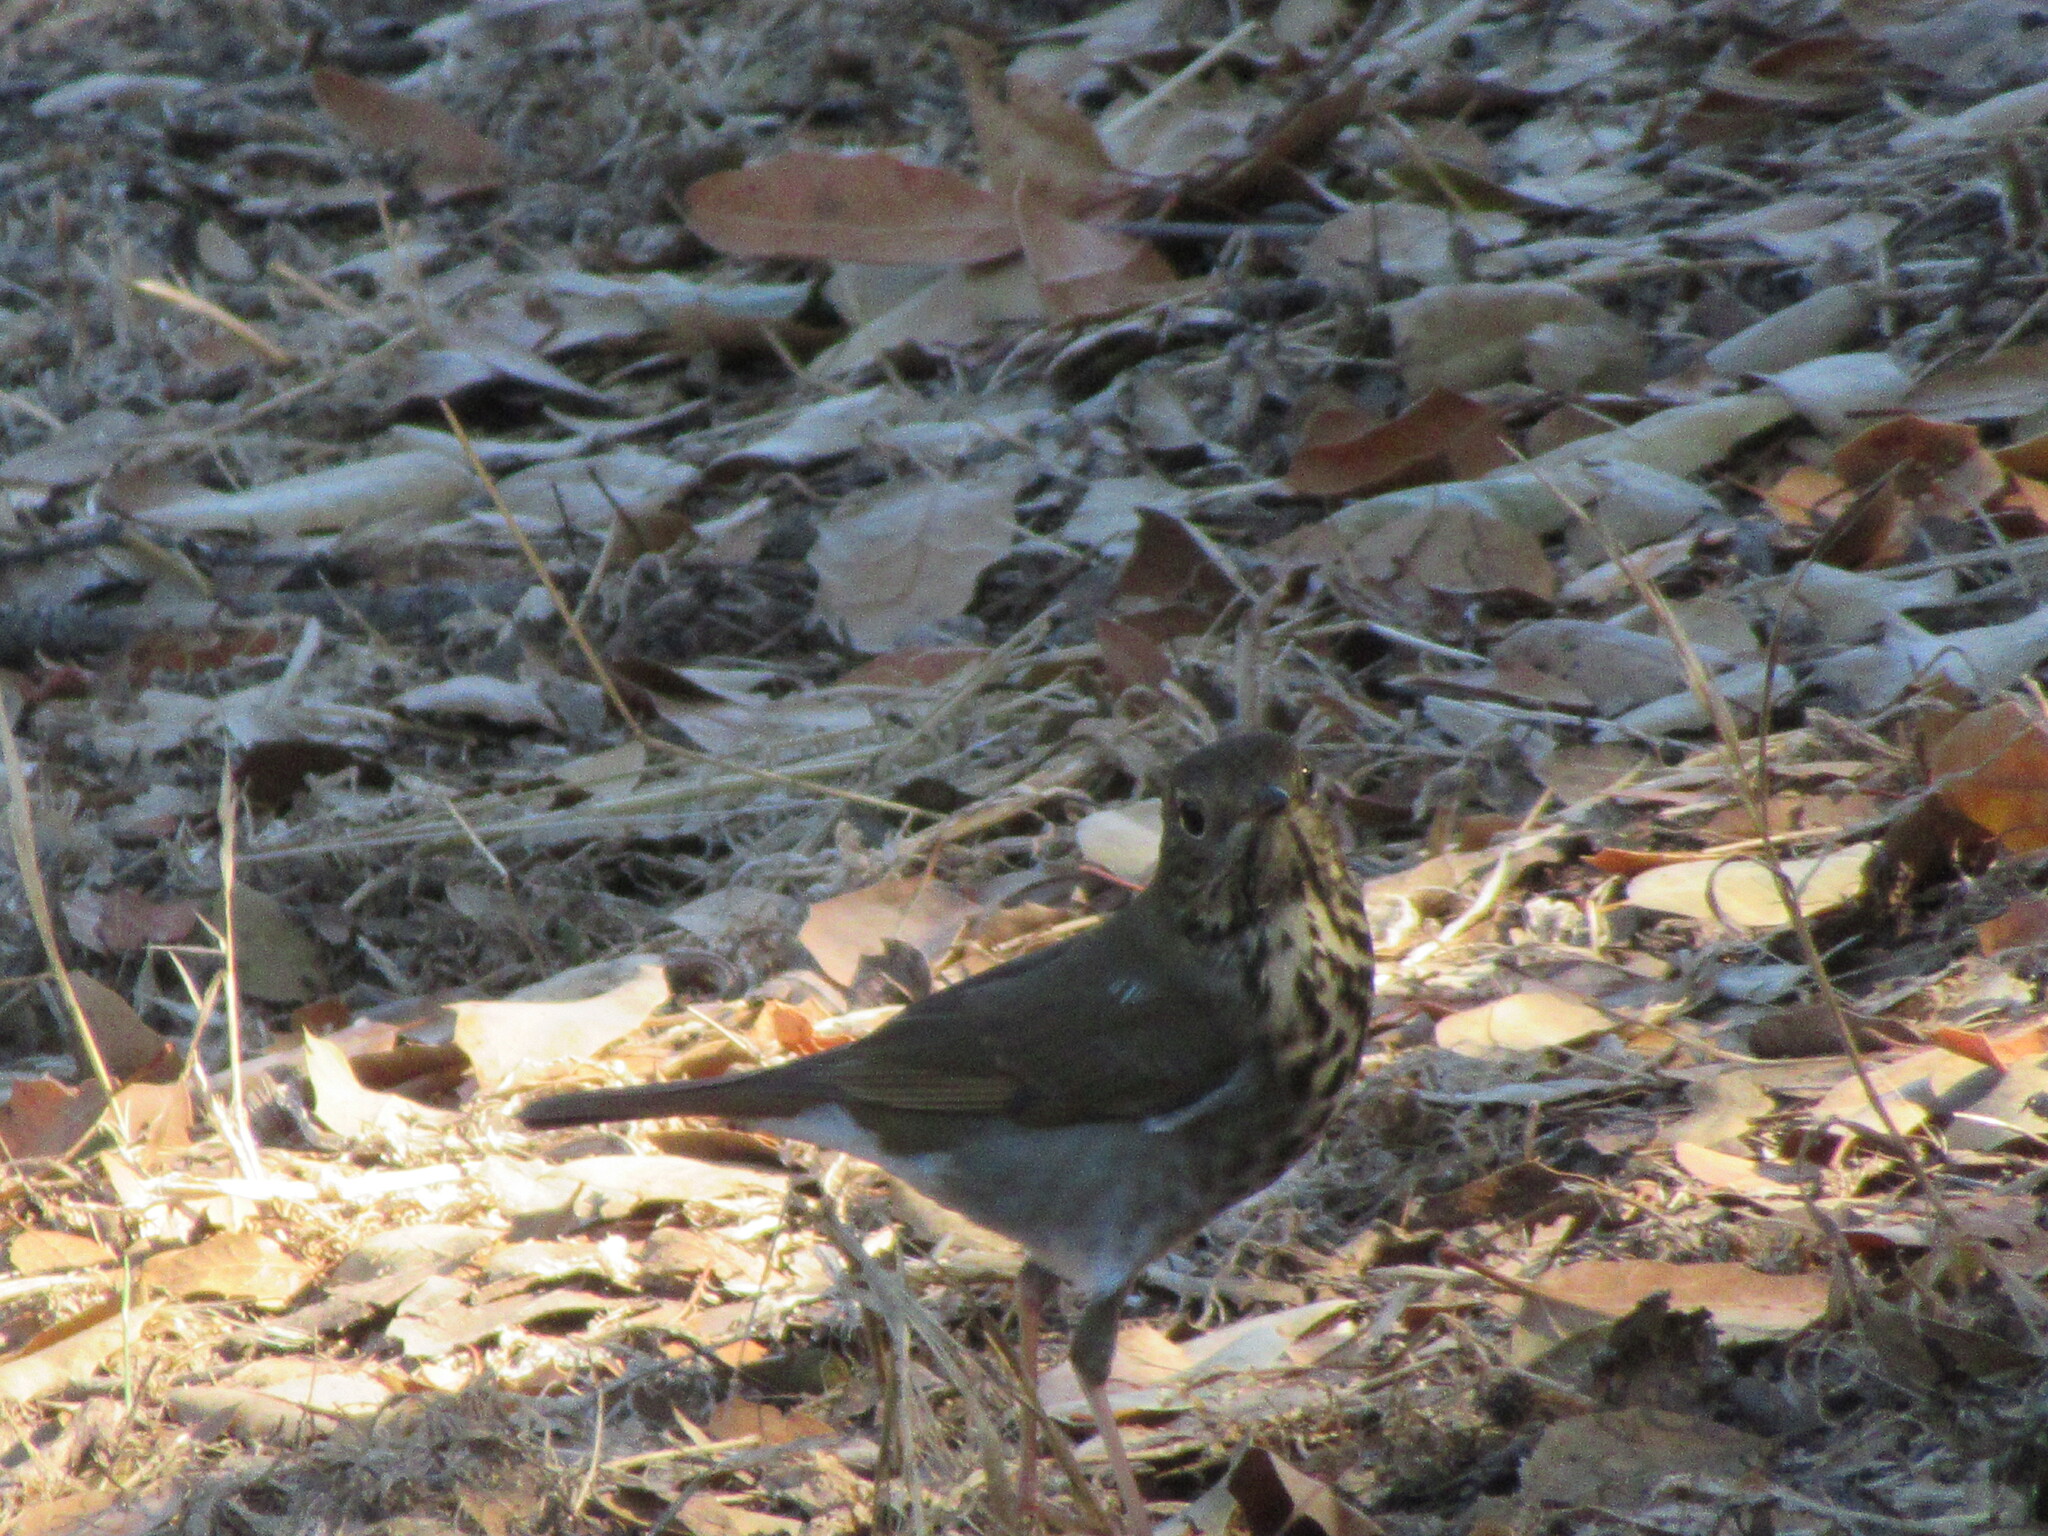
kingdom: Animalia
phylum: Chordata
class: Aves
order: Passeriformes
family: Turdidae
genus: Catharus
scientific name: Catharus guttatus
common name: Hermit thrush
